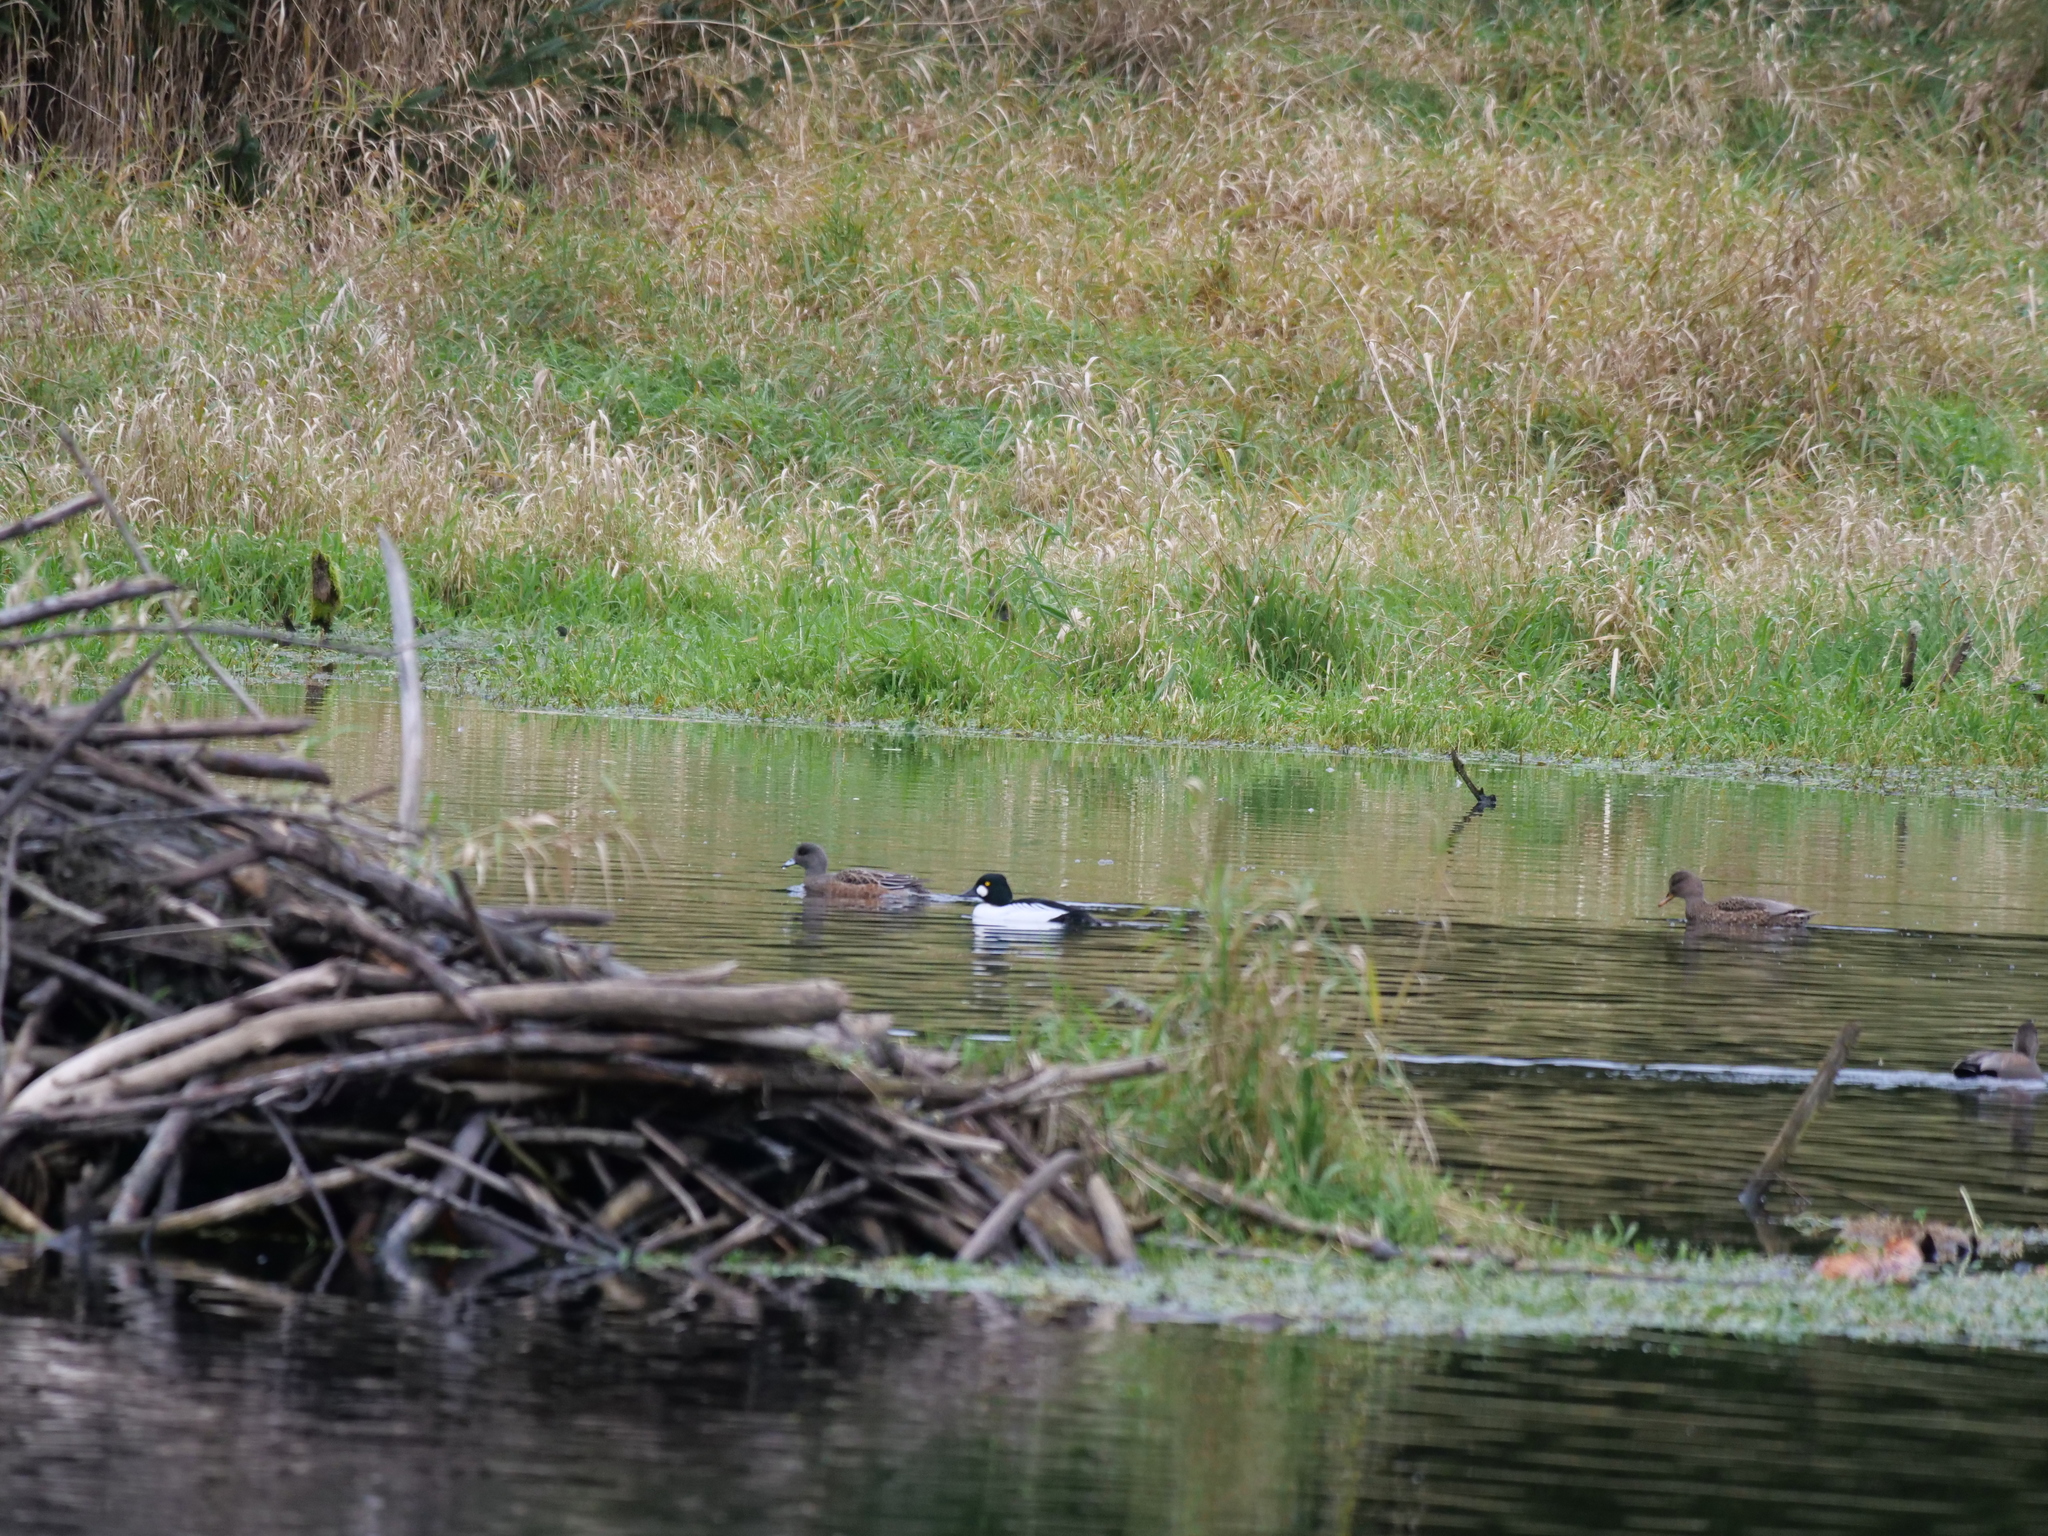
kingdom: Animalia
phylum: Chordata
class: Aves
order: Anseriformes
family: Anatidae
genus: Bucephala
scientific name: Bucephala clangula
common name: Common goldeneye
